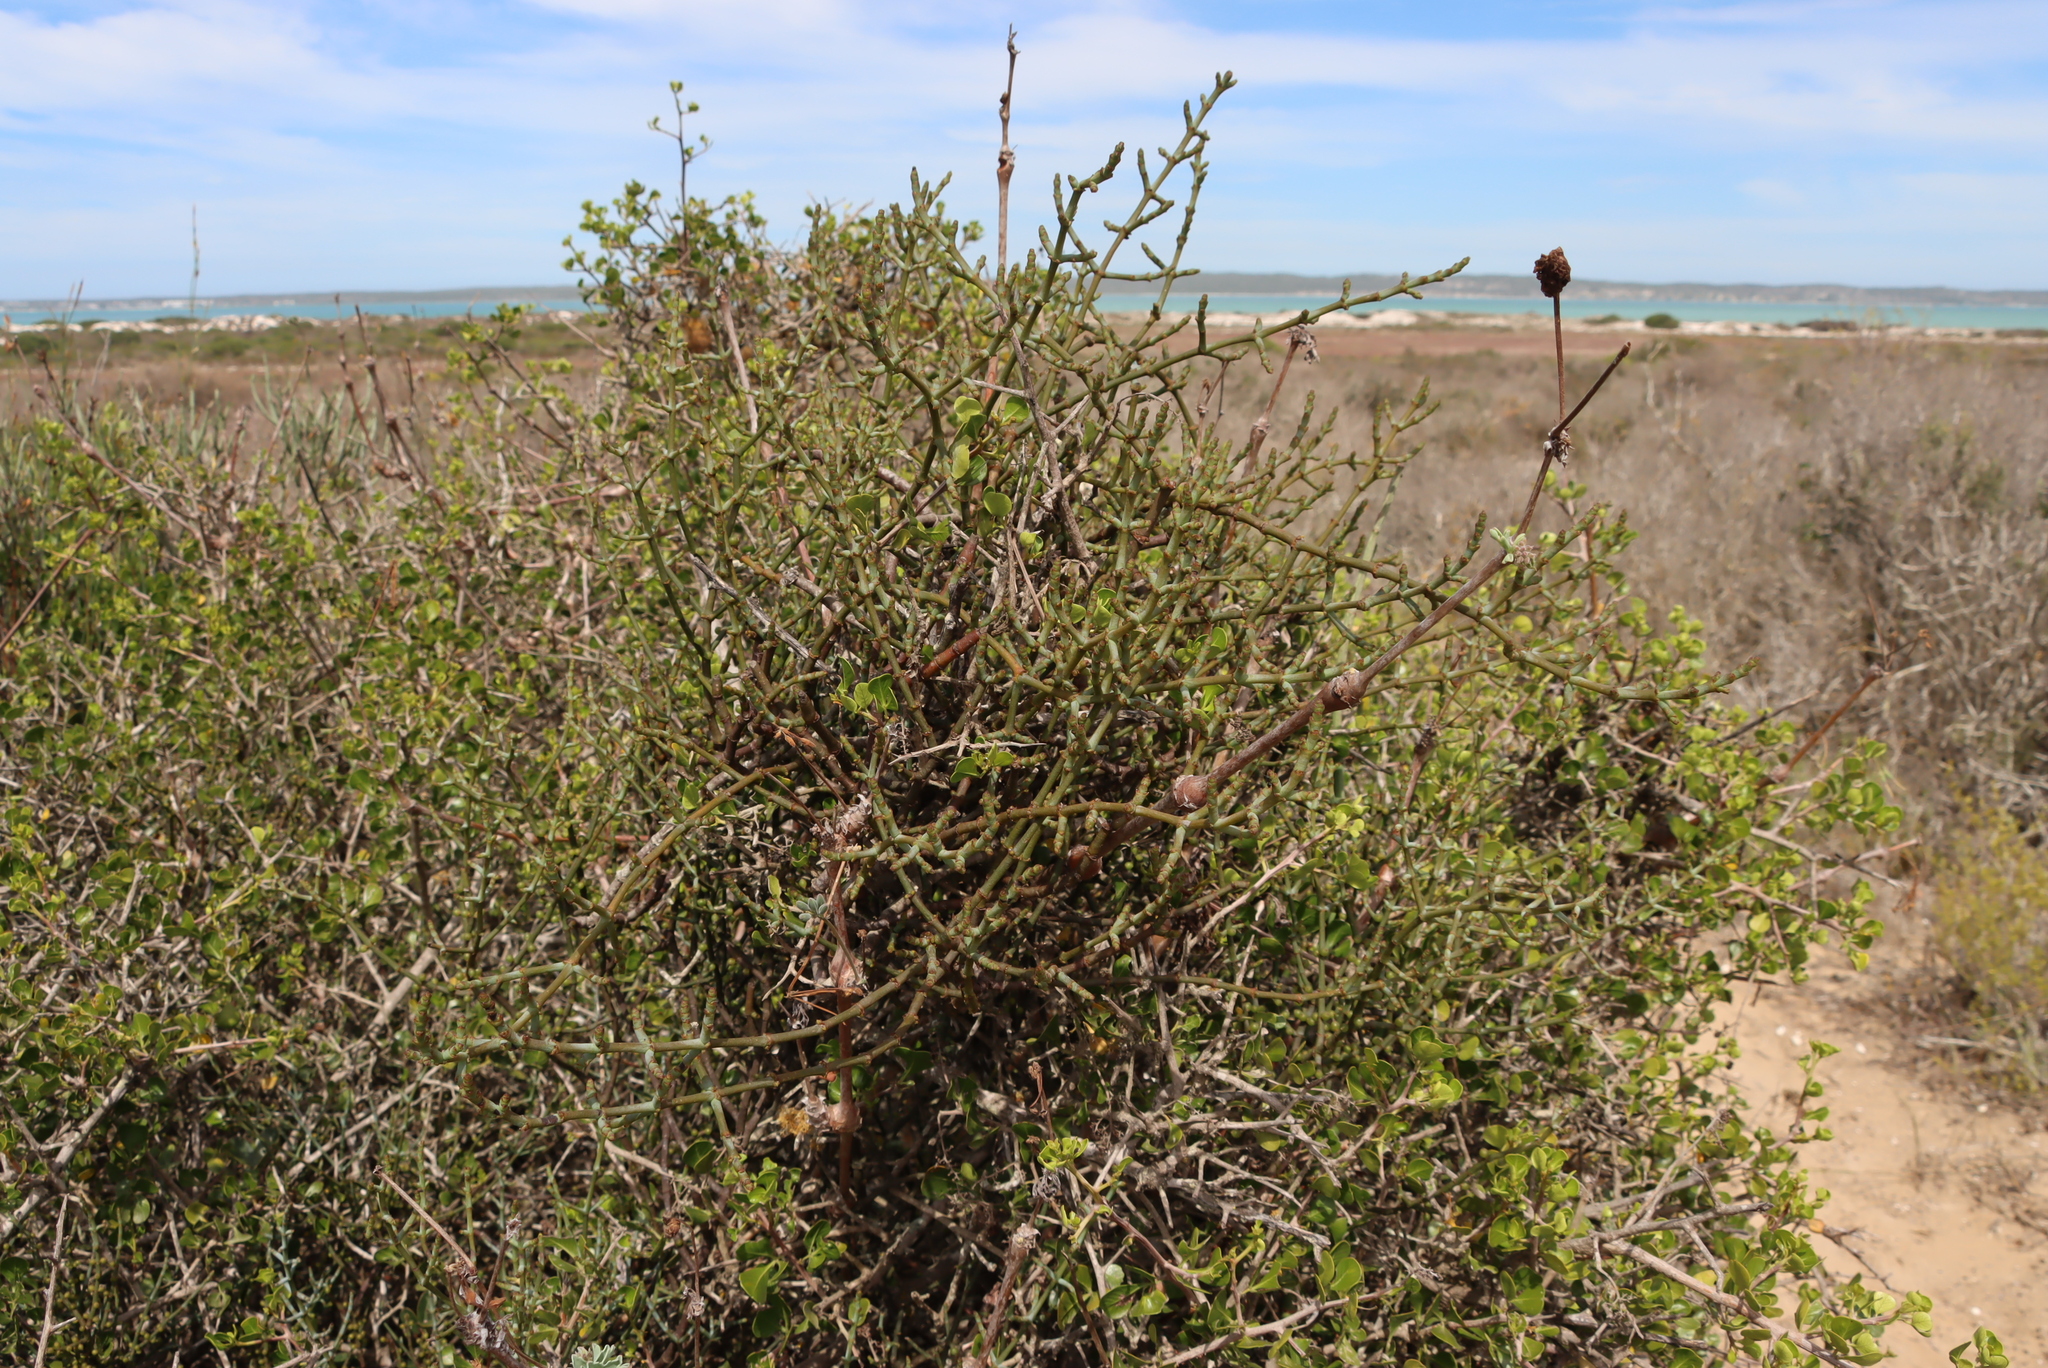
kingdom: Plantae
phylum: Tracheophyta
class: Magnoliopsida
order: Geraniales
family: Geraniaceae
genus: Pelargonium
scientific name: Pelargonium gibbosum
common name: Gouty geranium
